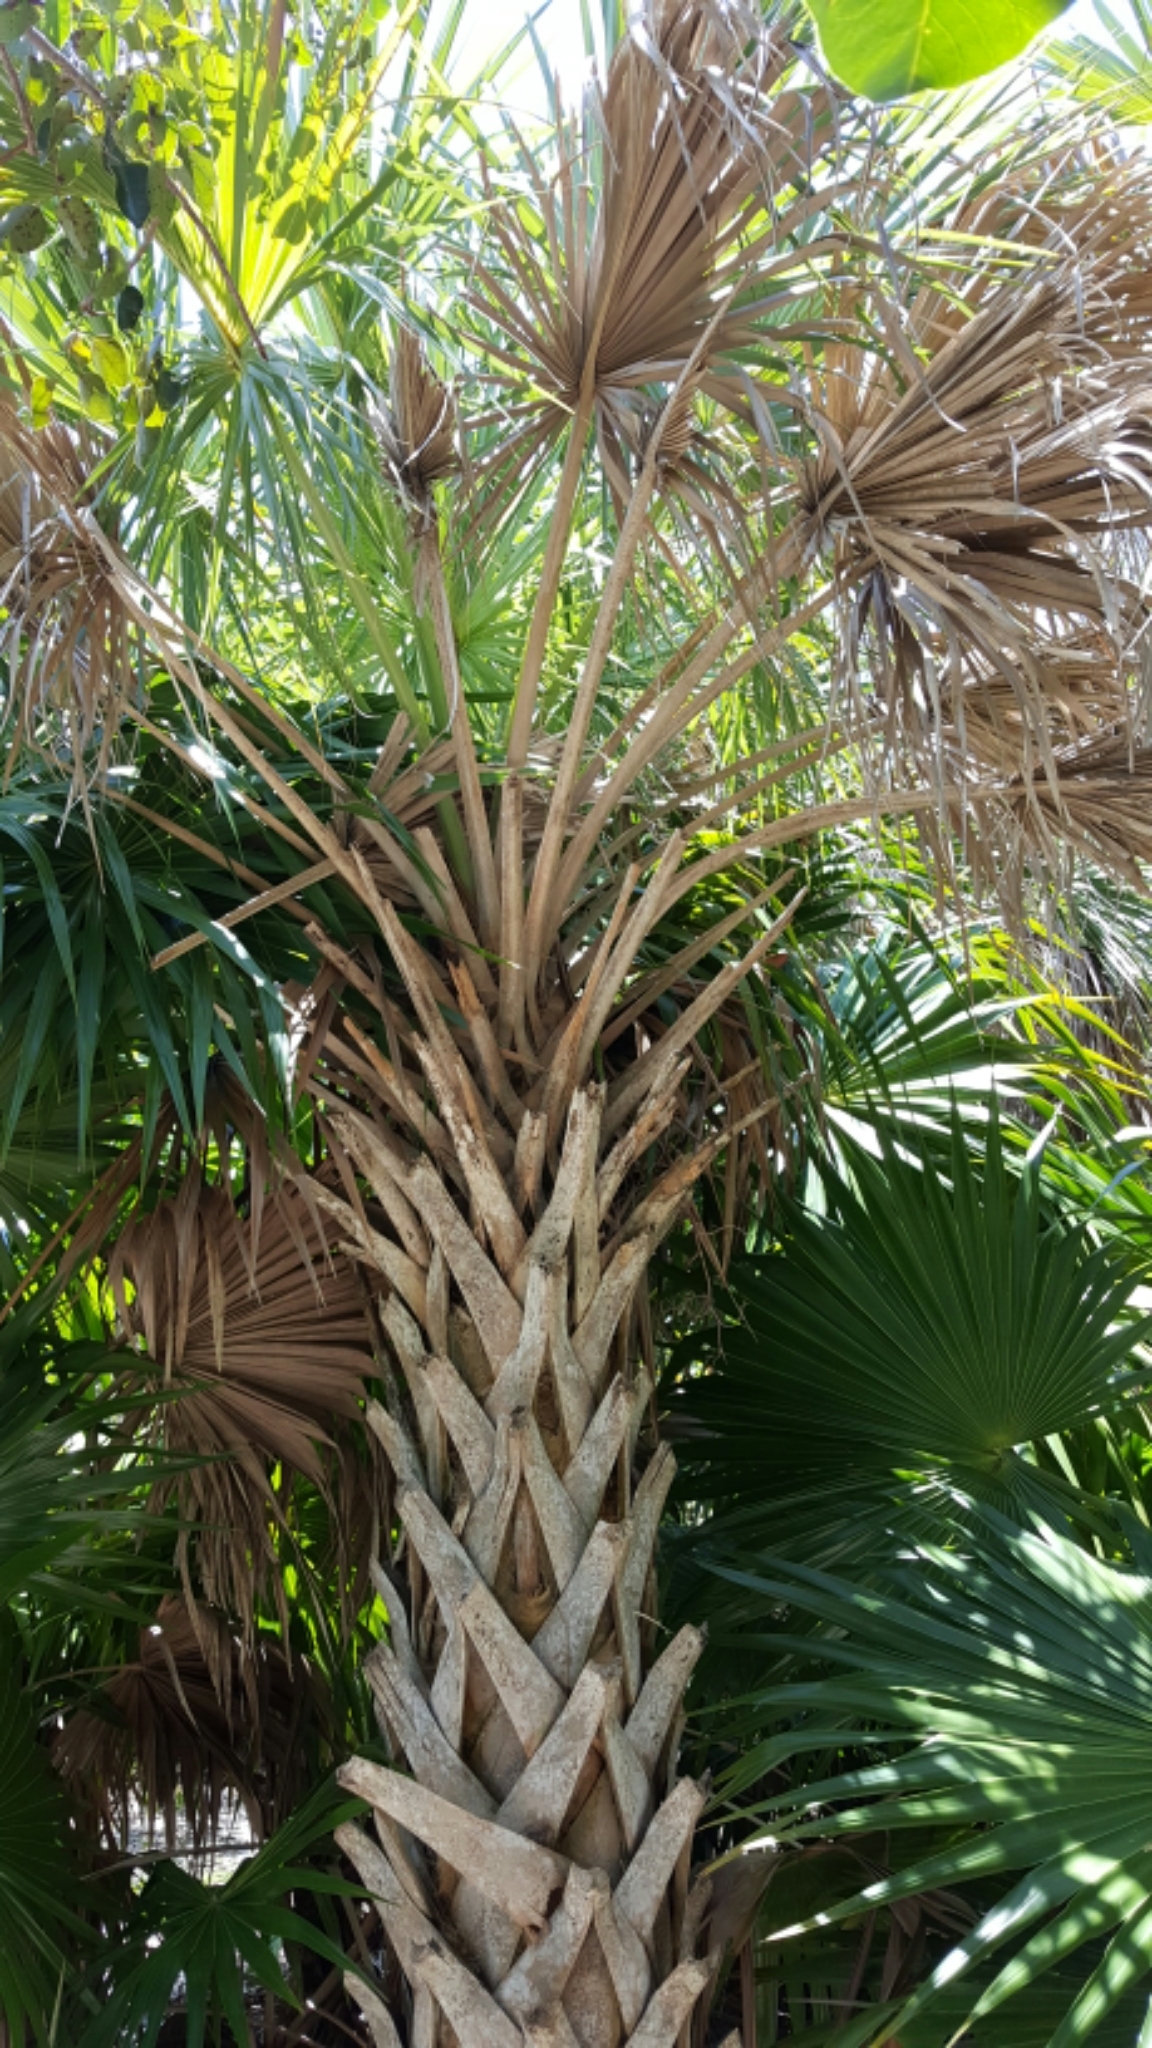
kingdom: Plantae
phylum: Tracheophyta
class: Liliopsida
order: Arecales
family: Arecaceae
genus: Sabal
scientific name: Sabal palmetto
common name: Blue palmetto
